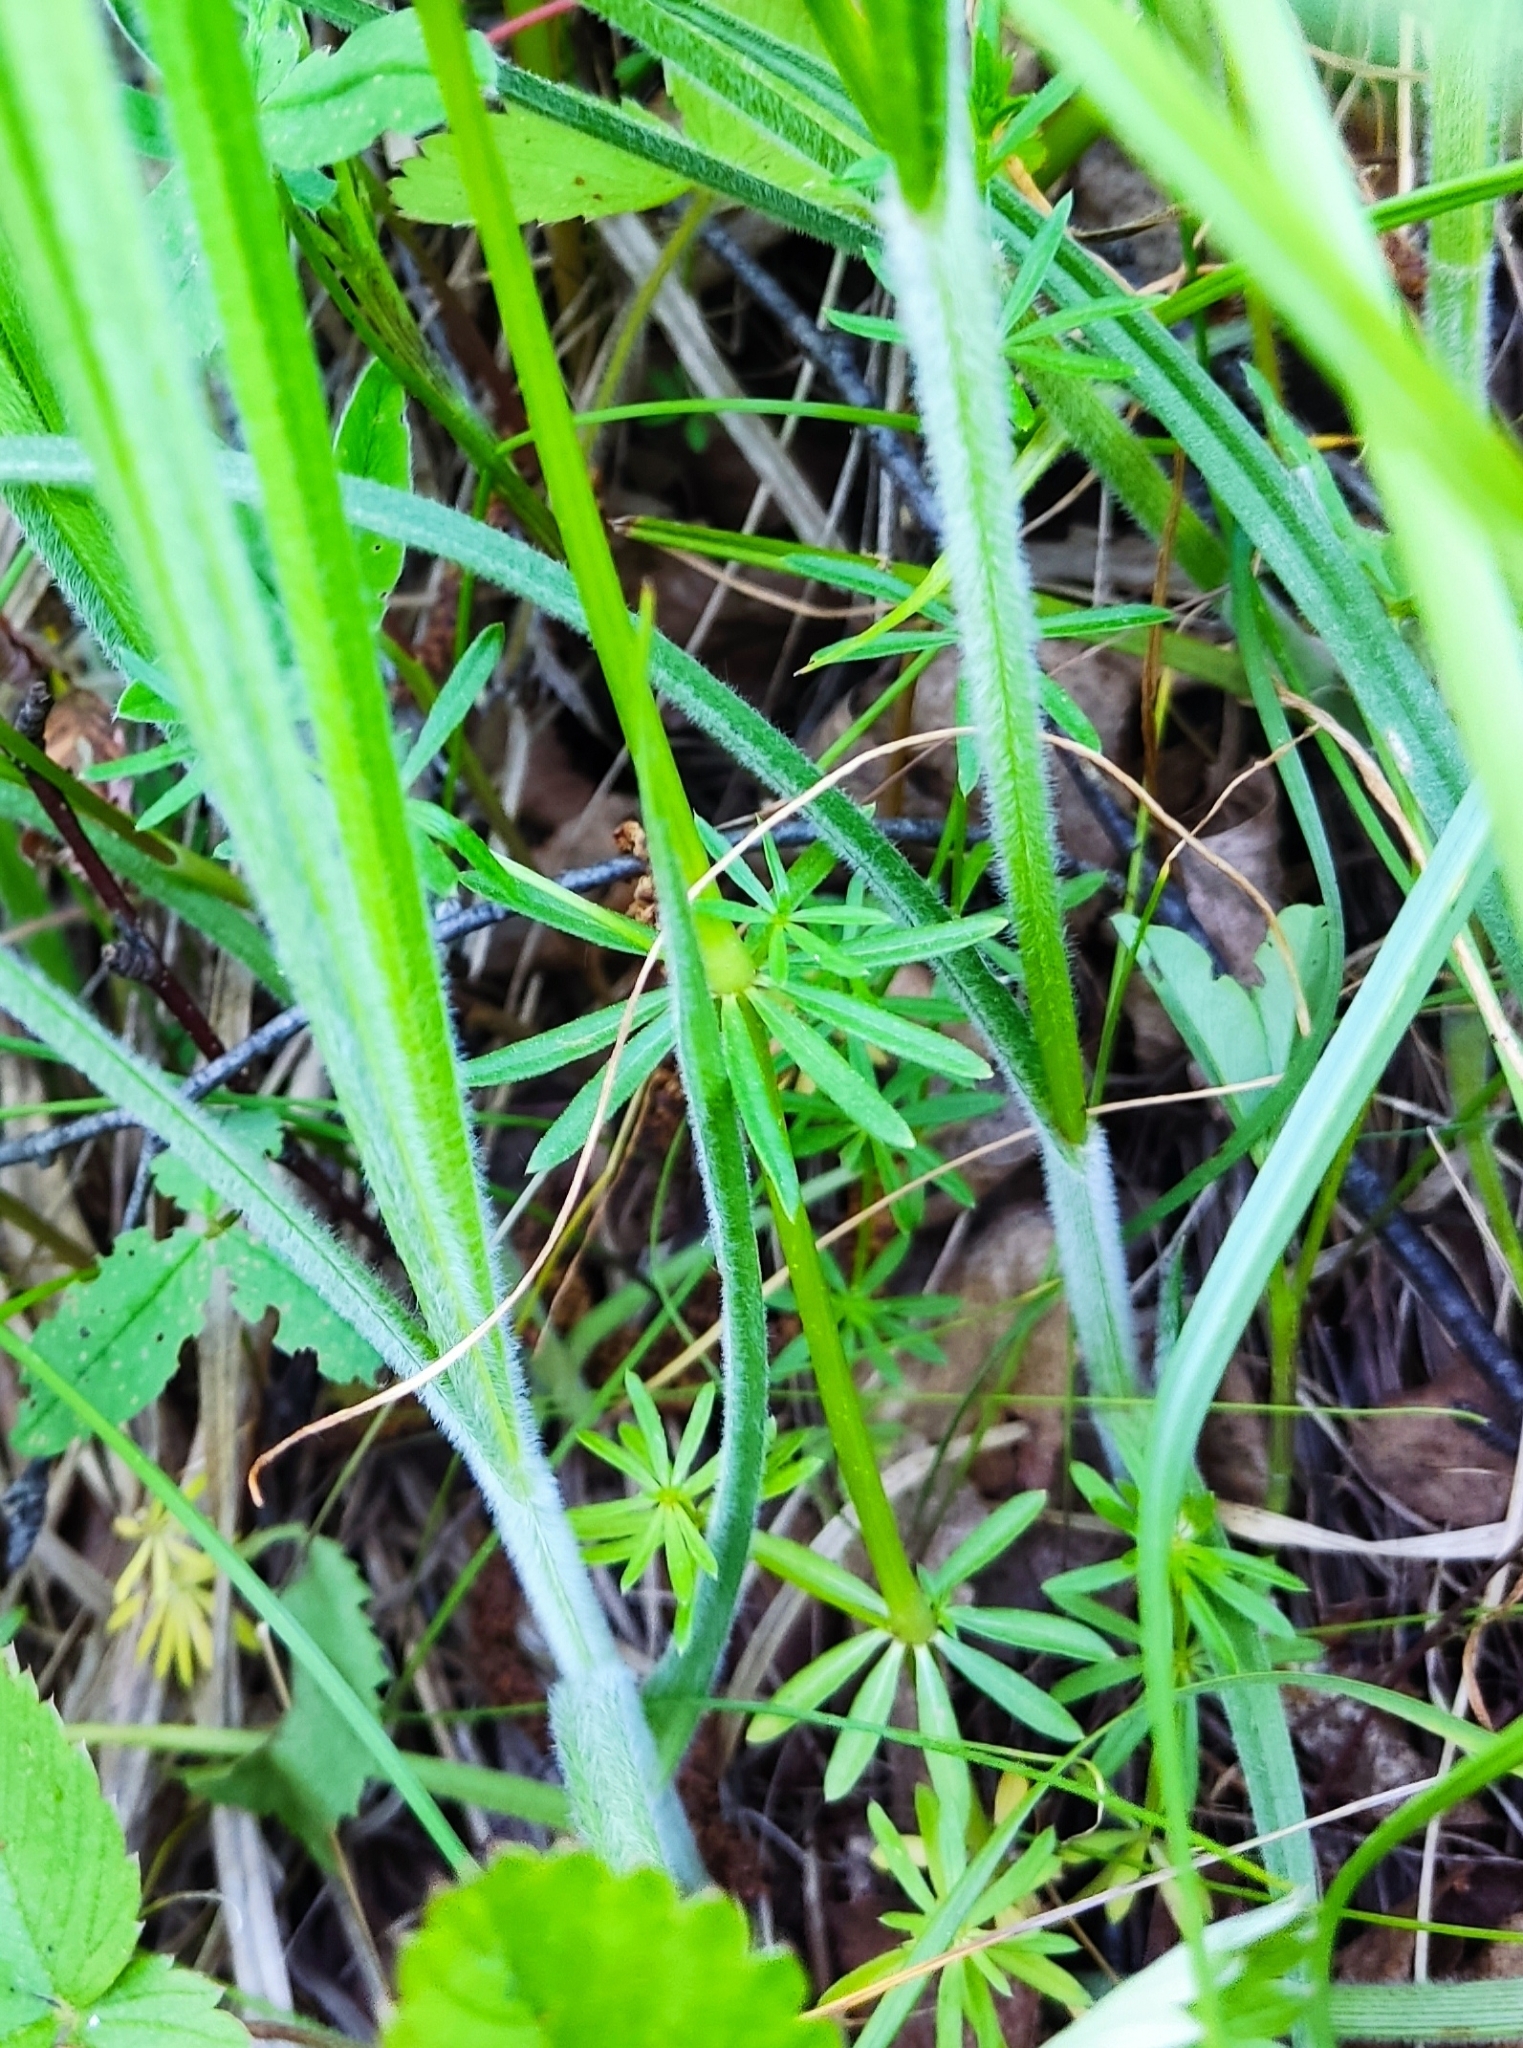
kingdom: Plantae
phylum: Tracheophyta
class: Liliopsida
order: Poales
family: Cyperaceae
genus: Carex
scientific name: Carex hirta
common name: Hairy sedge
